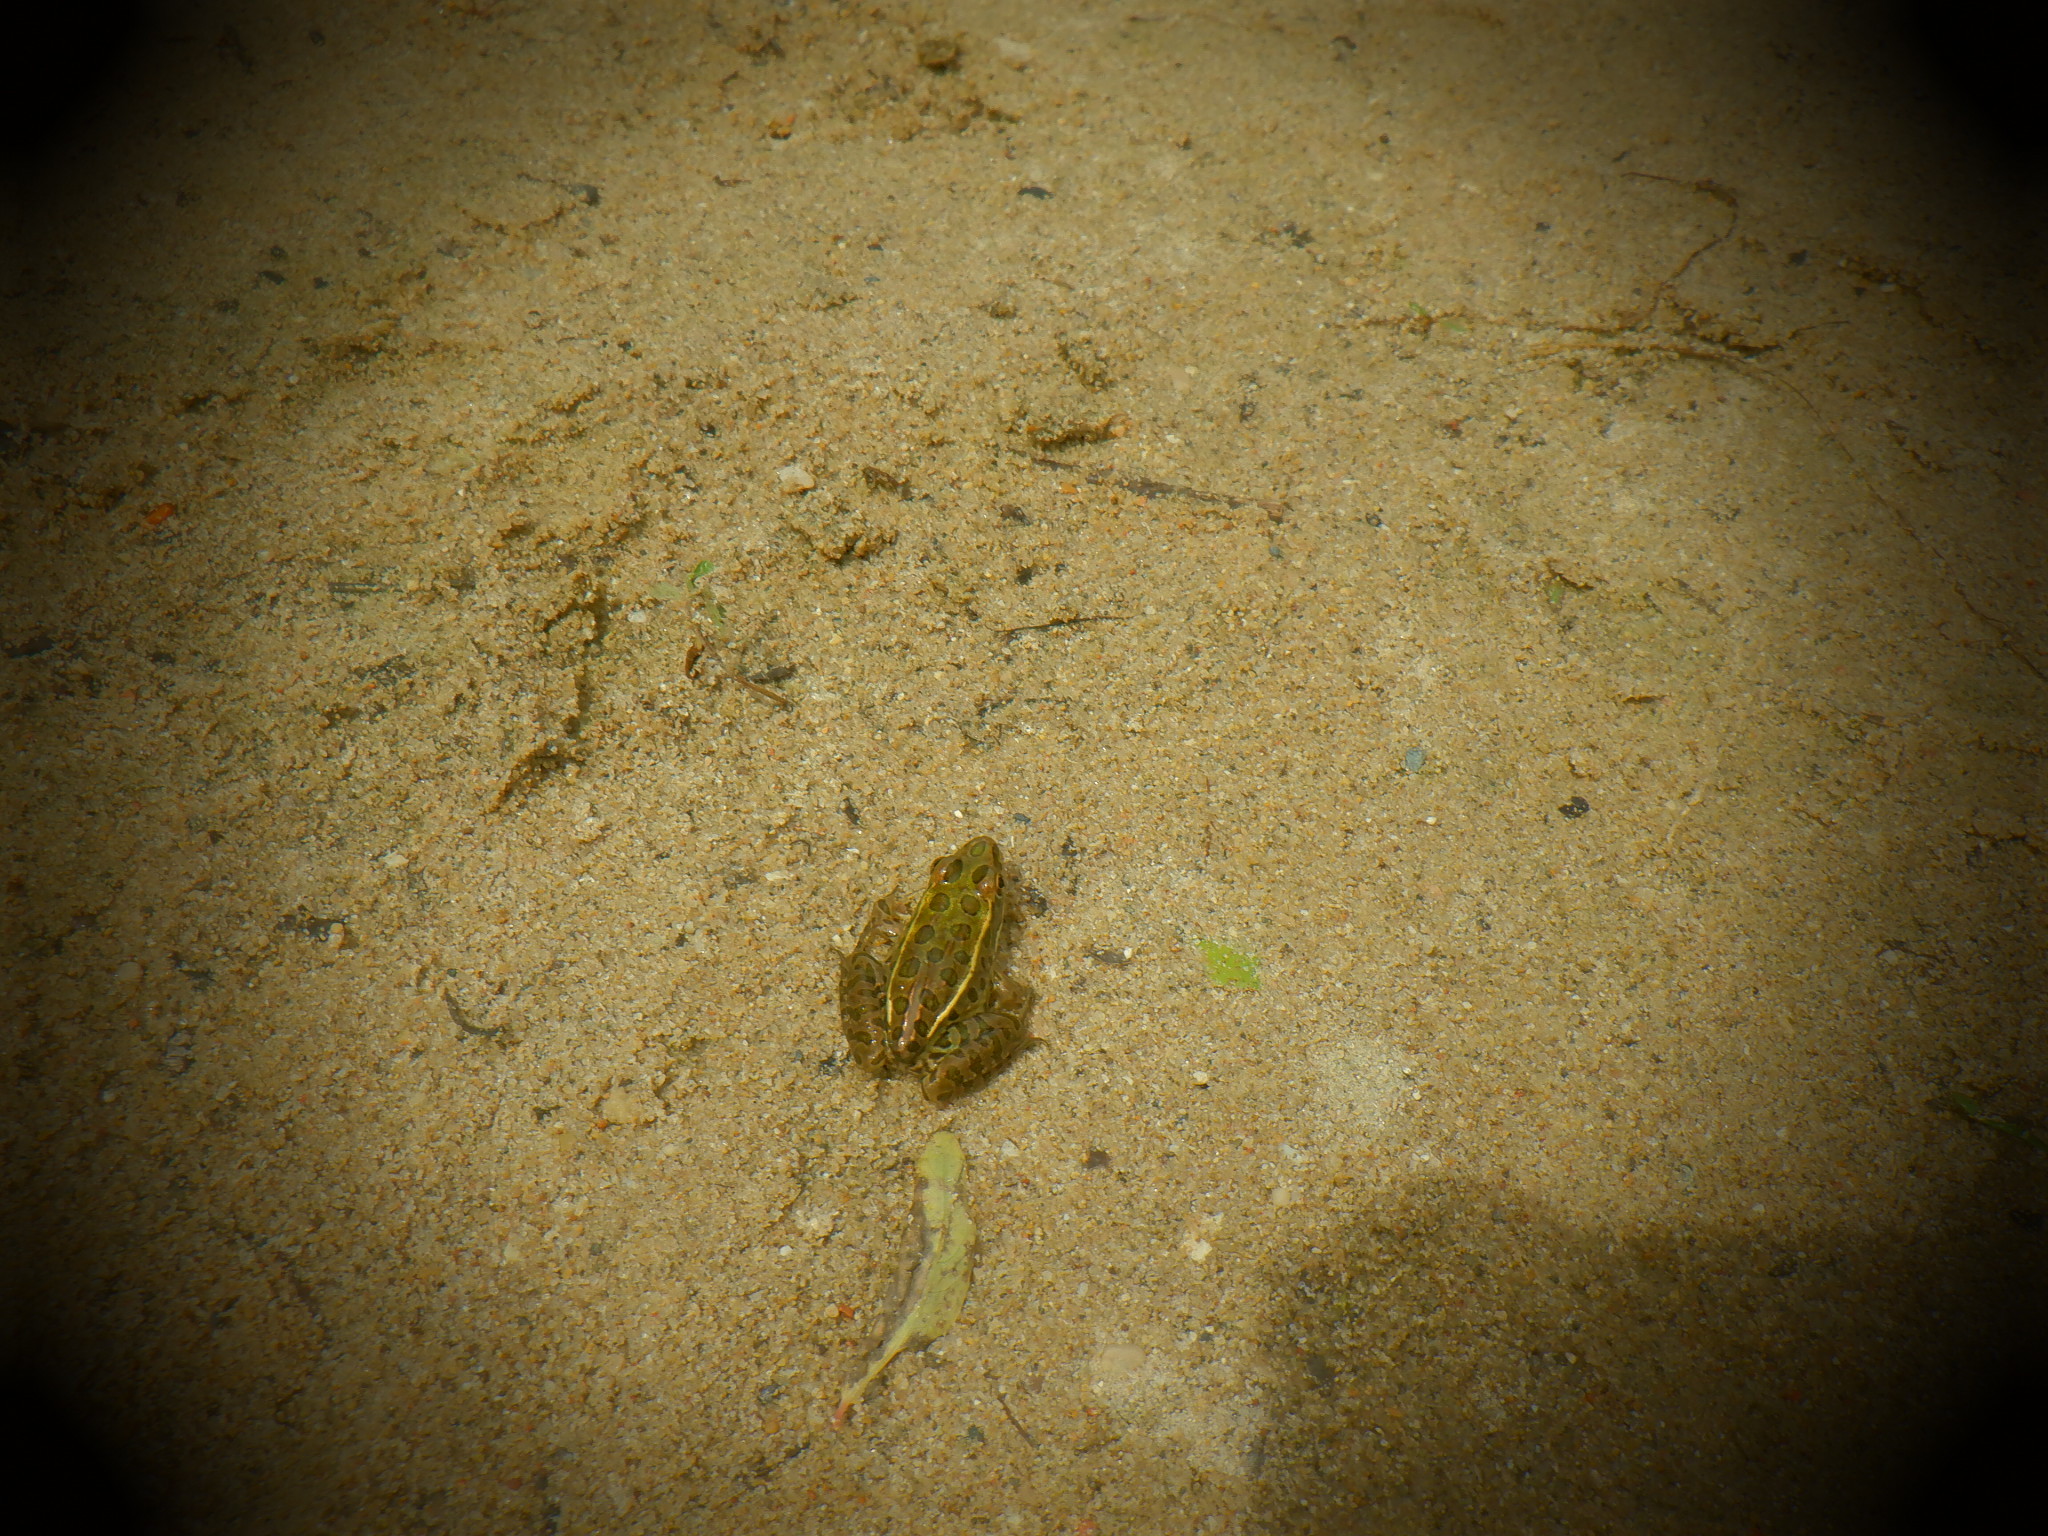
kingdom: Animalia
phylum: Chordata
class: Amphibia
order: Anura
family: Ranidae
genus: Lithobates
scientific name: Lithobates pipiens
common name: Northern leopard frog
